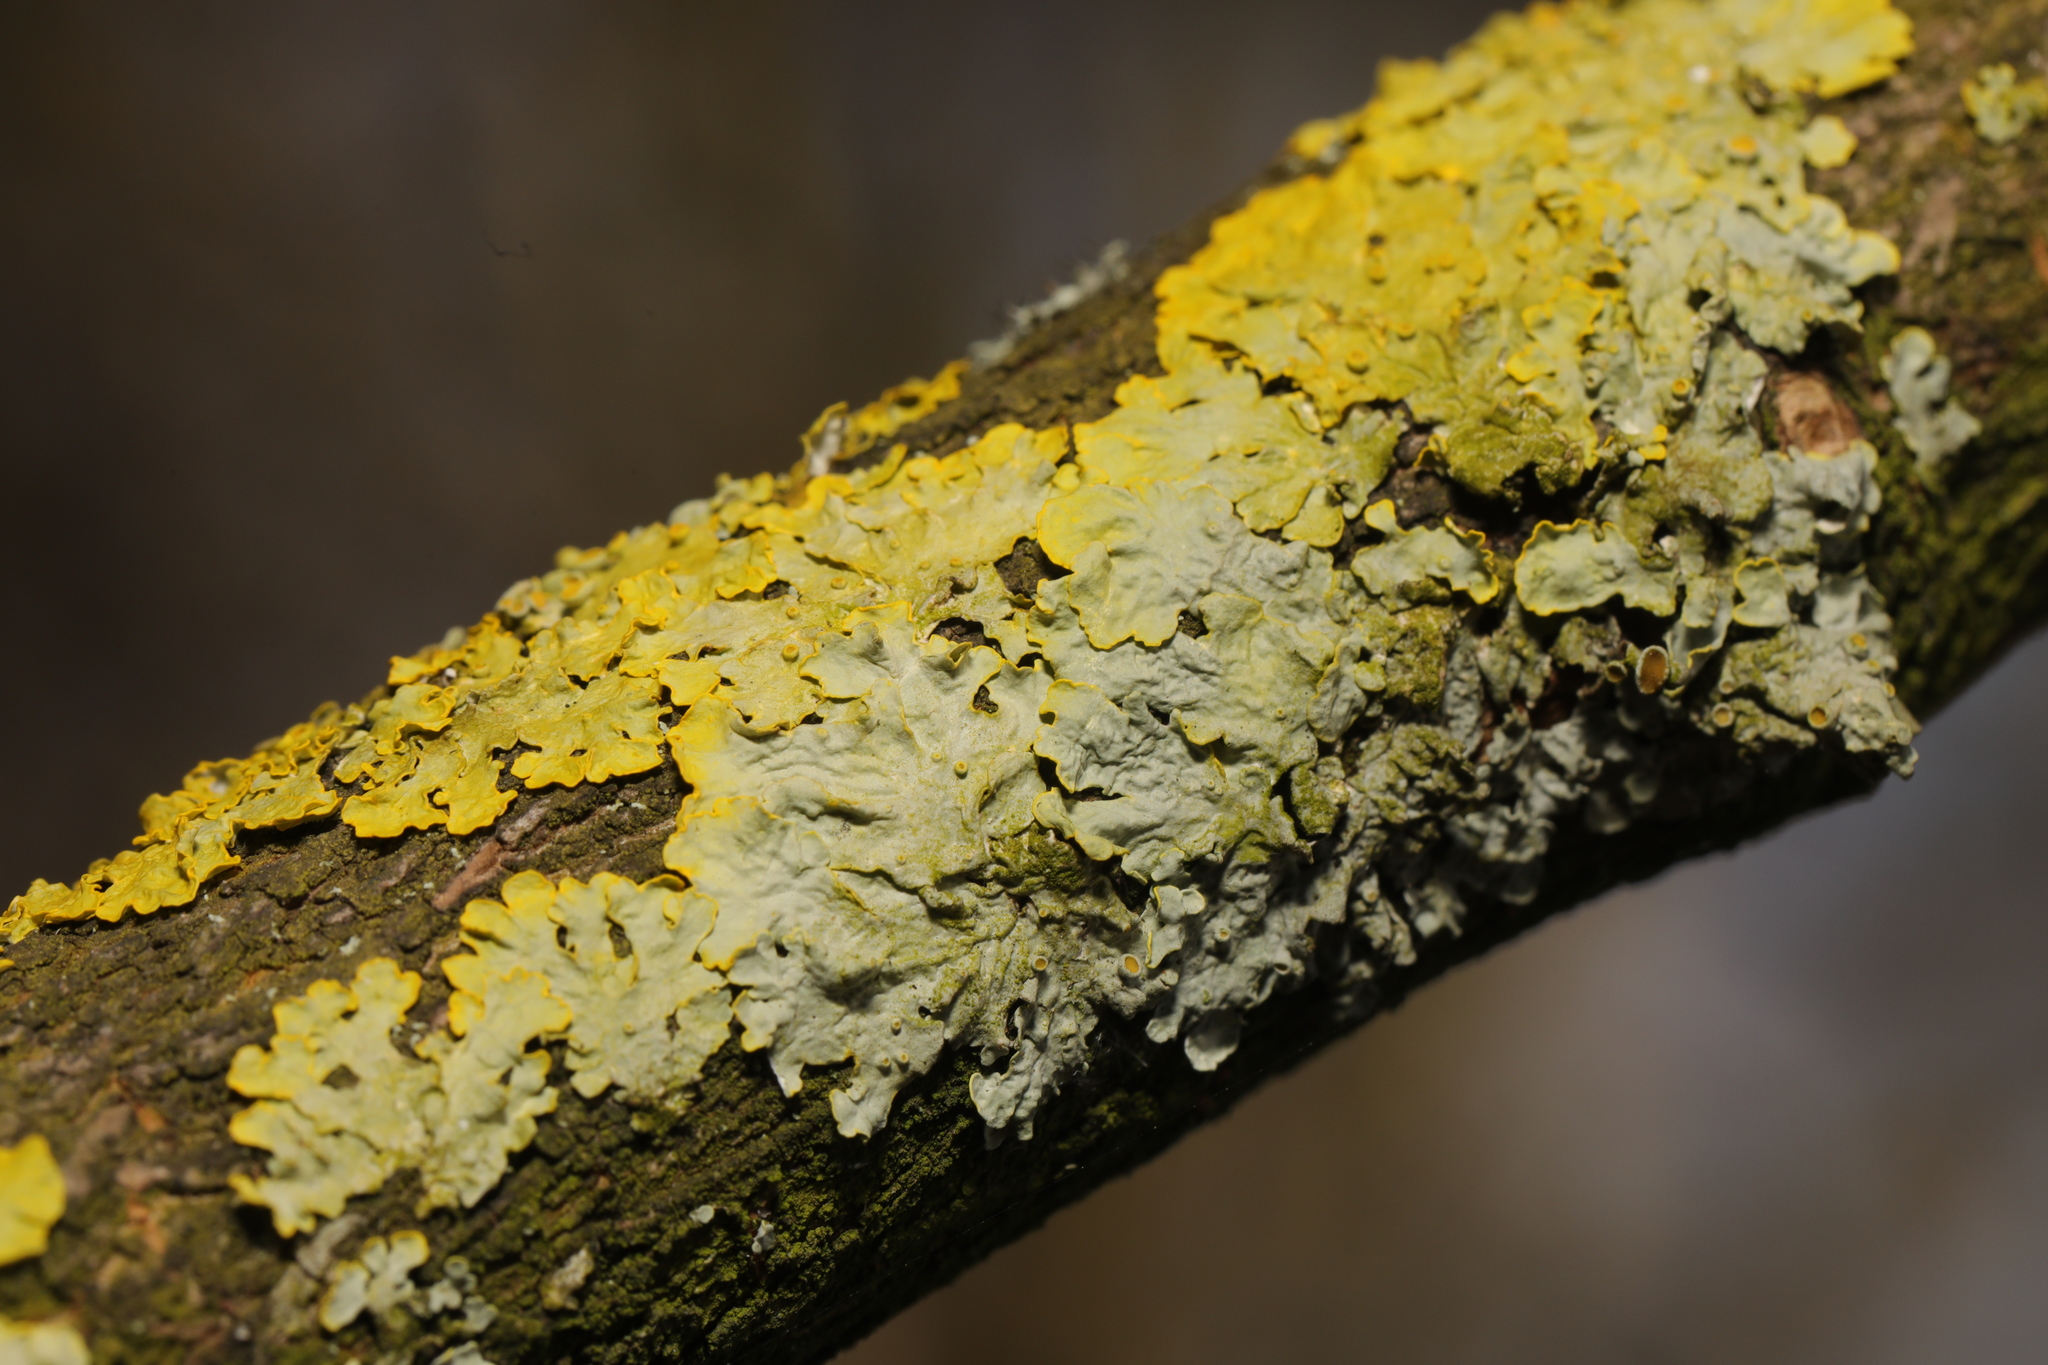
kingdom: Fungi
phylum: Ascomycota
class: Lecanoromycetes
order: Teloschistales
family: Teloschistaceae
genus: Xanthoria
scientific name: Xanthoria parietina
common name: Common orange lichen
